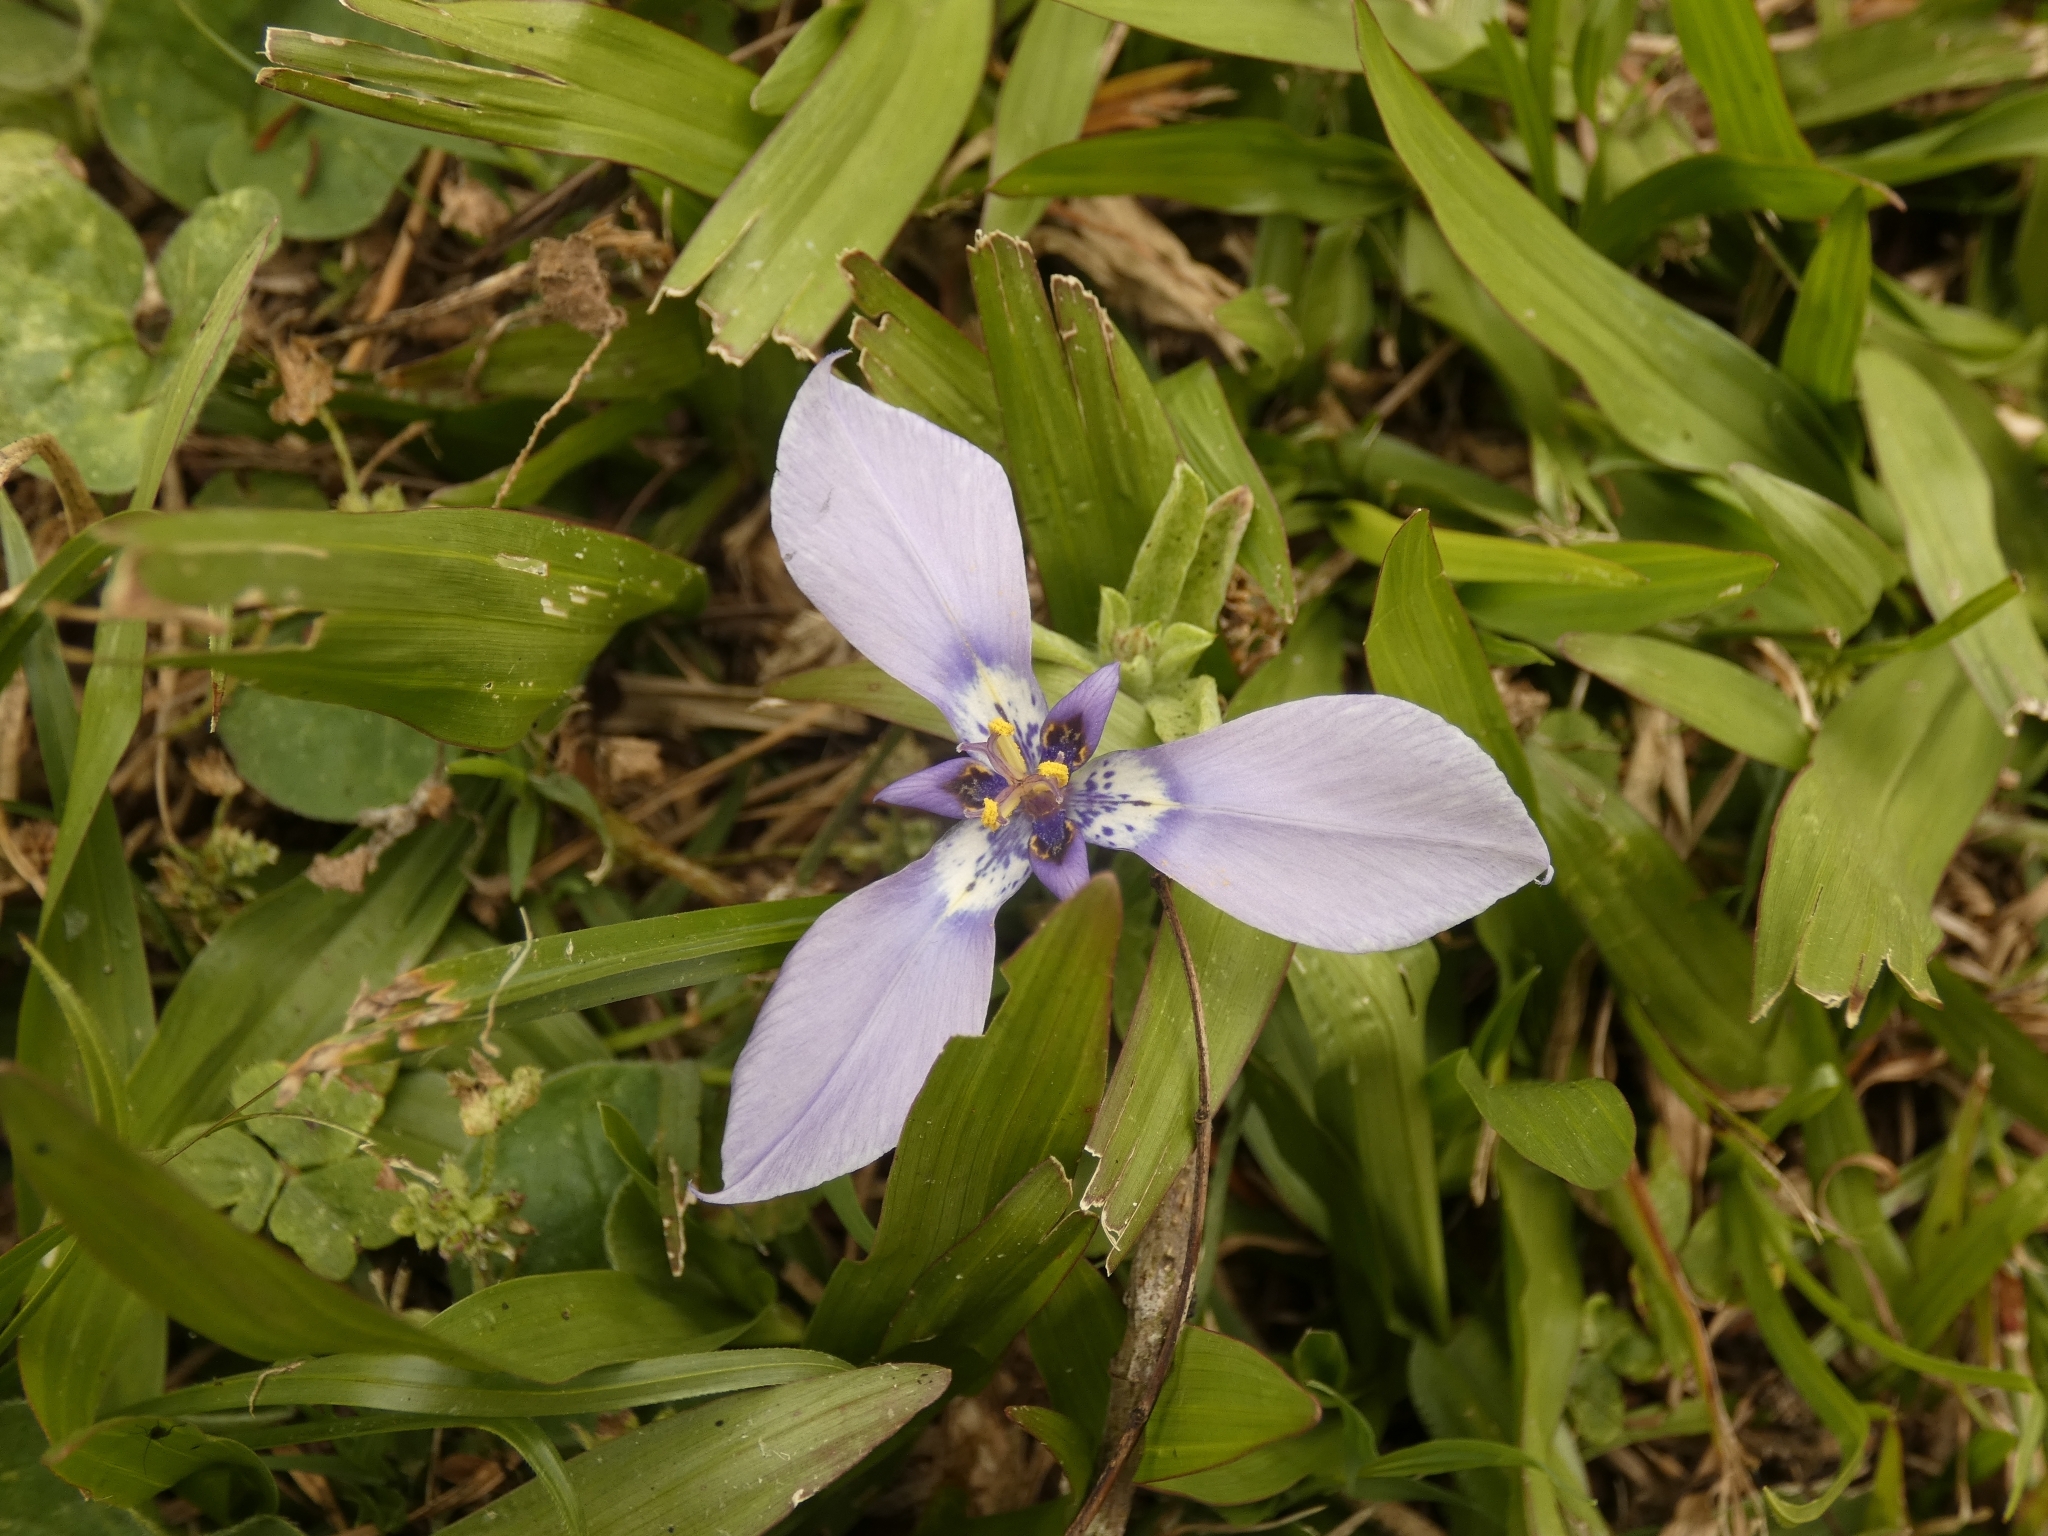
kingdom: Plantae
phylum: Tracheophyta
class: Liliopsida
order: Asparagales
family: Iridaceae
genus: Herbertia
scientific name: Herbertia lahue
